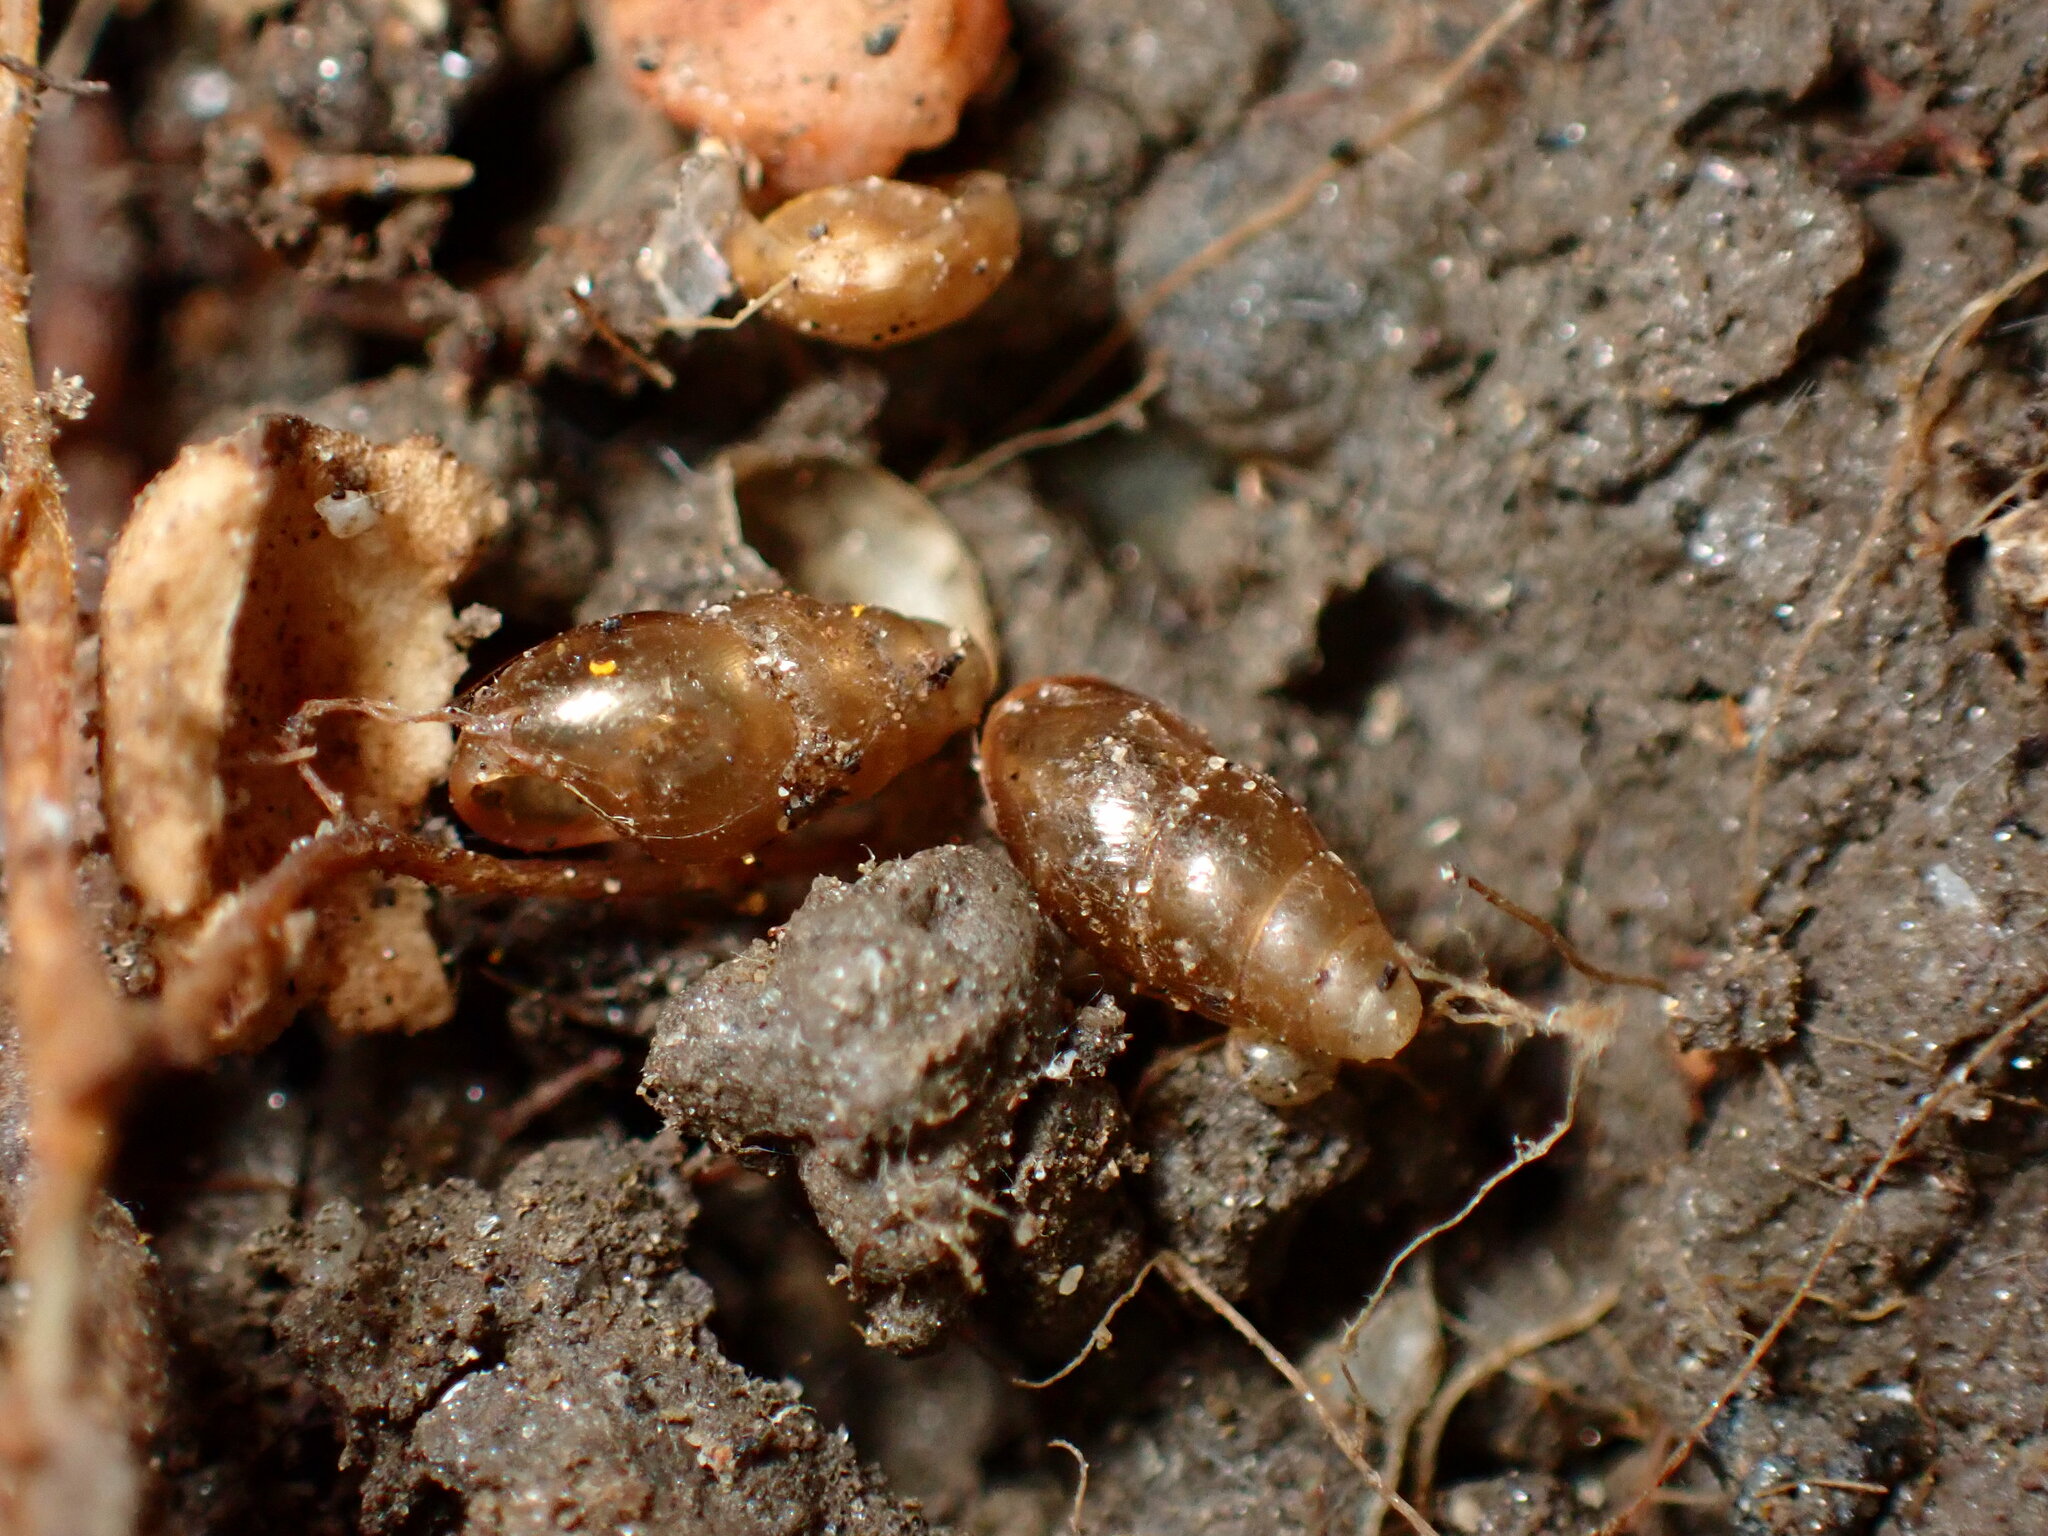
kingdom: Animalia
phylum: Mollusca
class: Gastropoda
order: Stylommatophora
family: Cochlicopidae
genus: Cochlicopa
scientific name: Cochlicopa lubrica
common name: Glossy pillar snail
